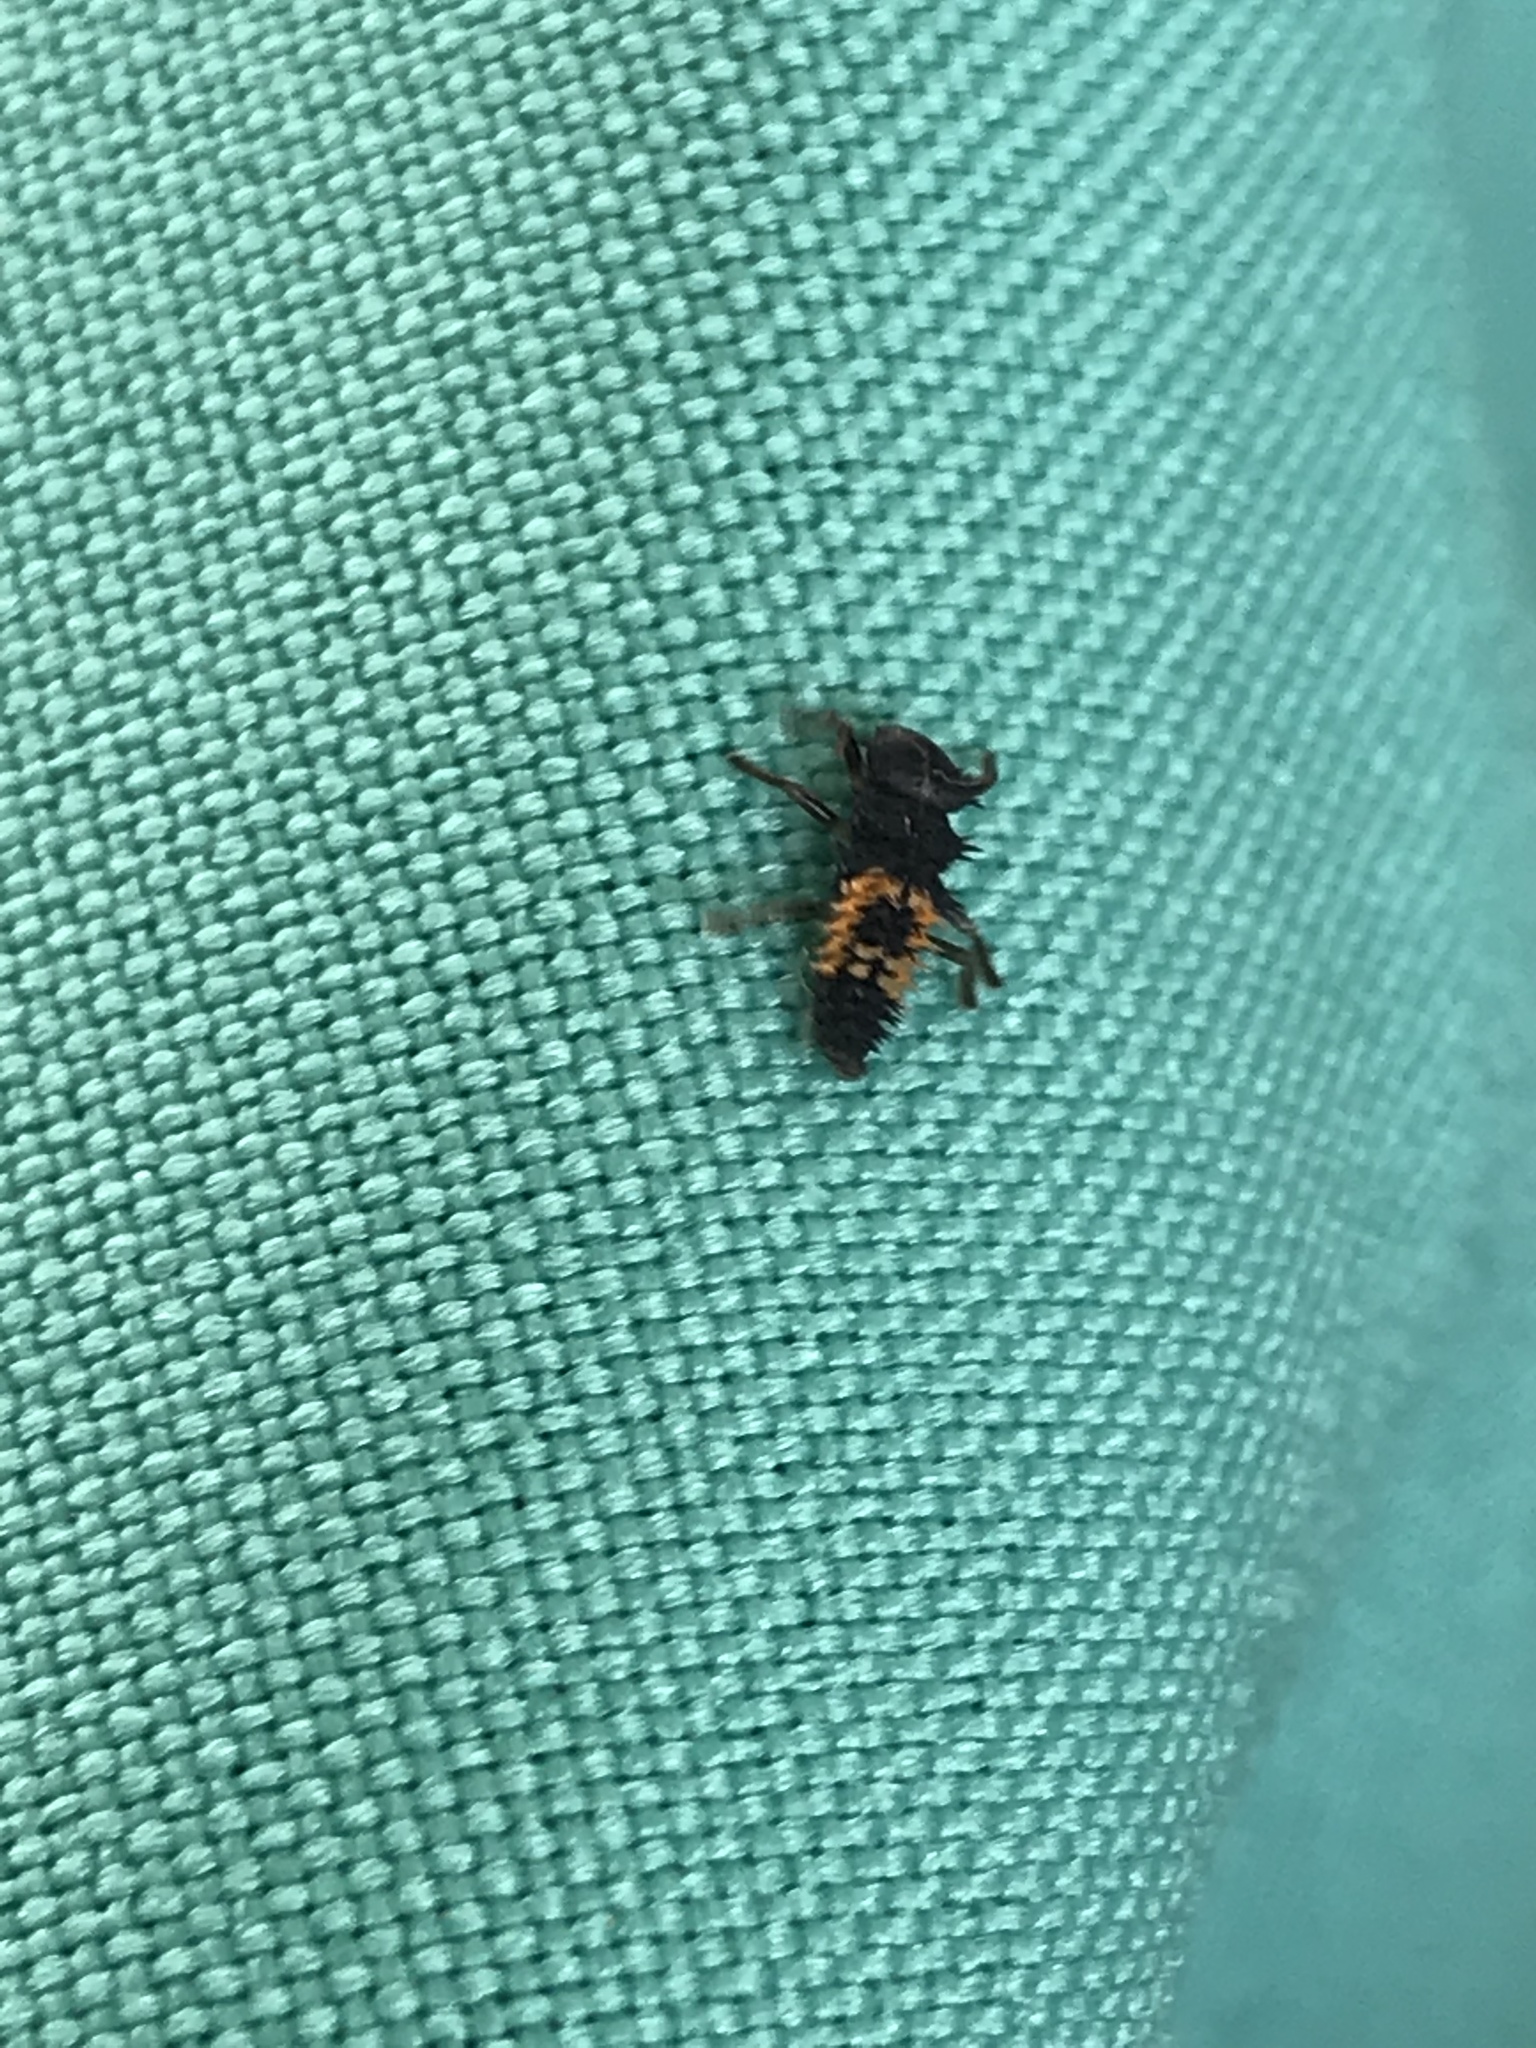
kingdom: Animalia
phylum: Arthropoda
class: Insecta
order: Coleoptera
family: Coccinellidae
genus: Harmonia
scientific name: Harmonia axyridis
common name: Harlequin ladybird
